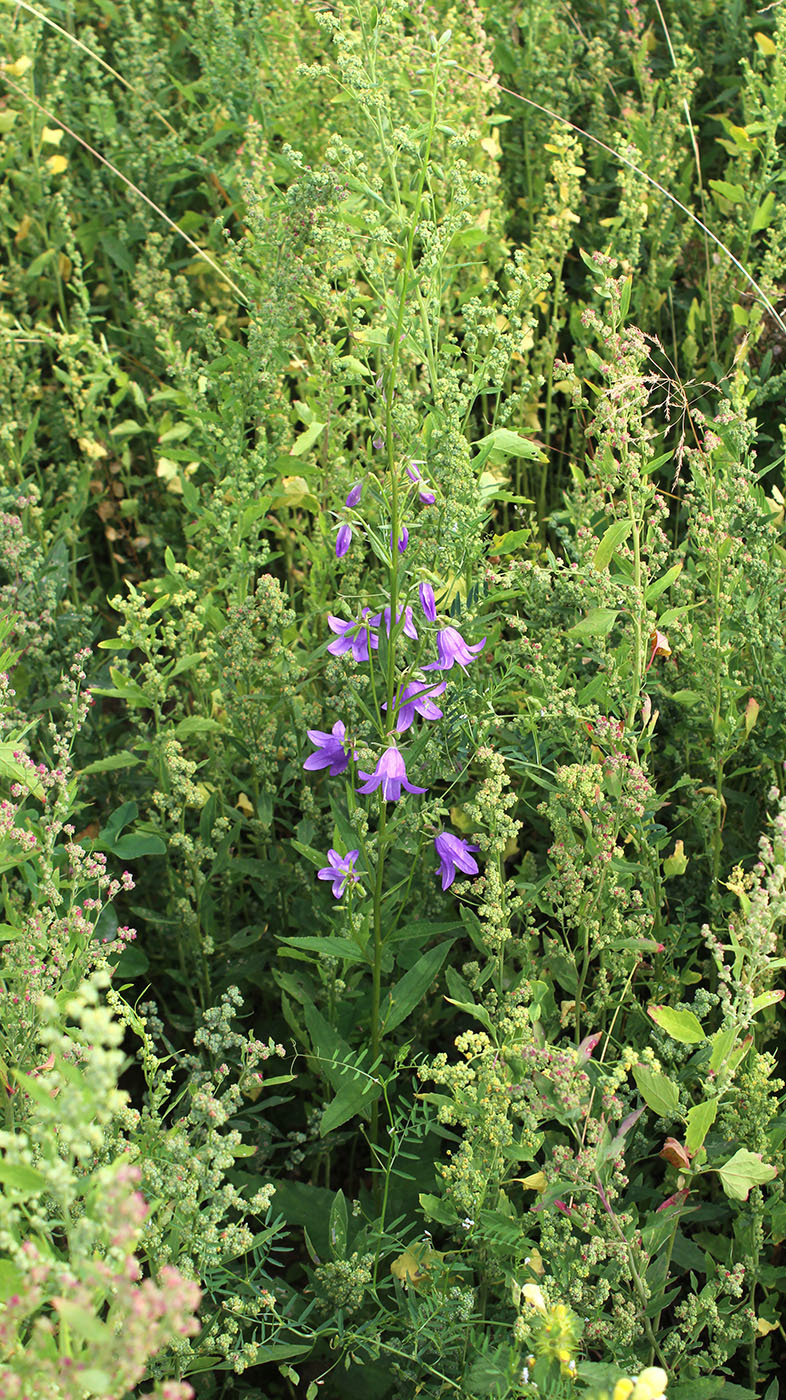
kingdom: Plantae
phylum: Tracheophyta
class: Magnoliopsida
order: Asterales
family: Campanulaceae
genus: Campanula
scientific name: Campanula rapunculoides
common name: Creeping bellflower
